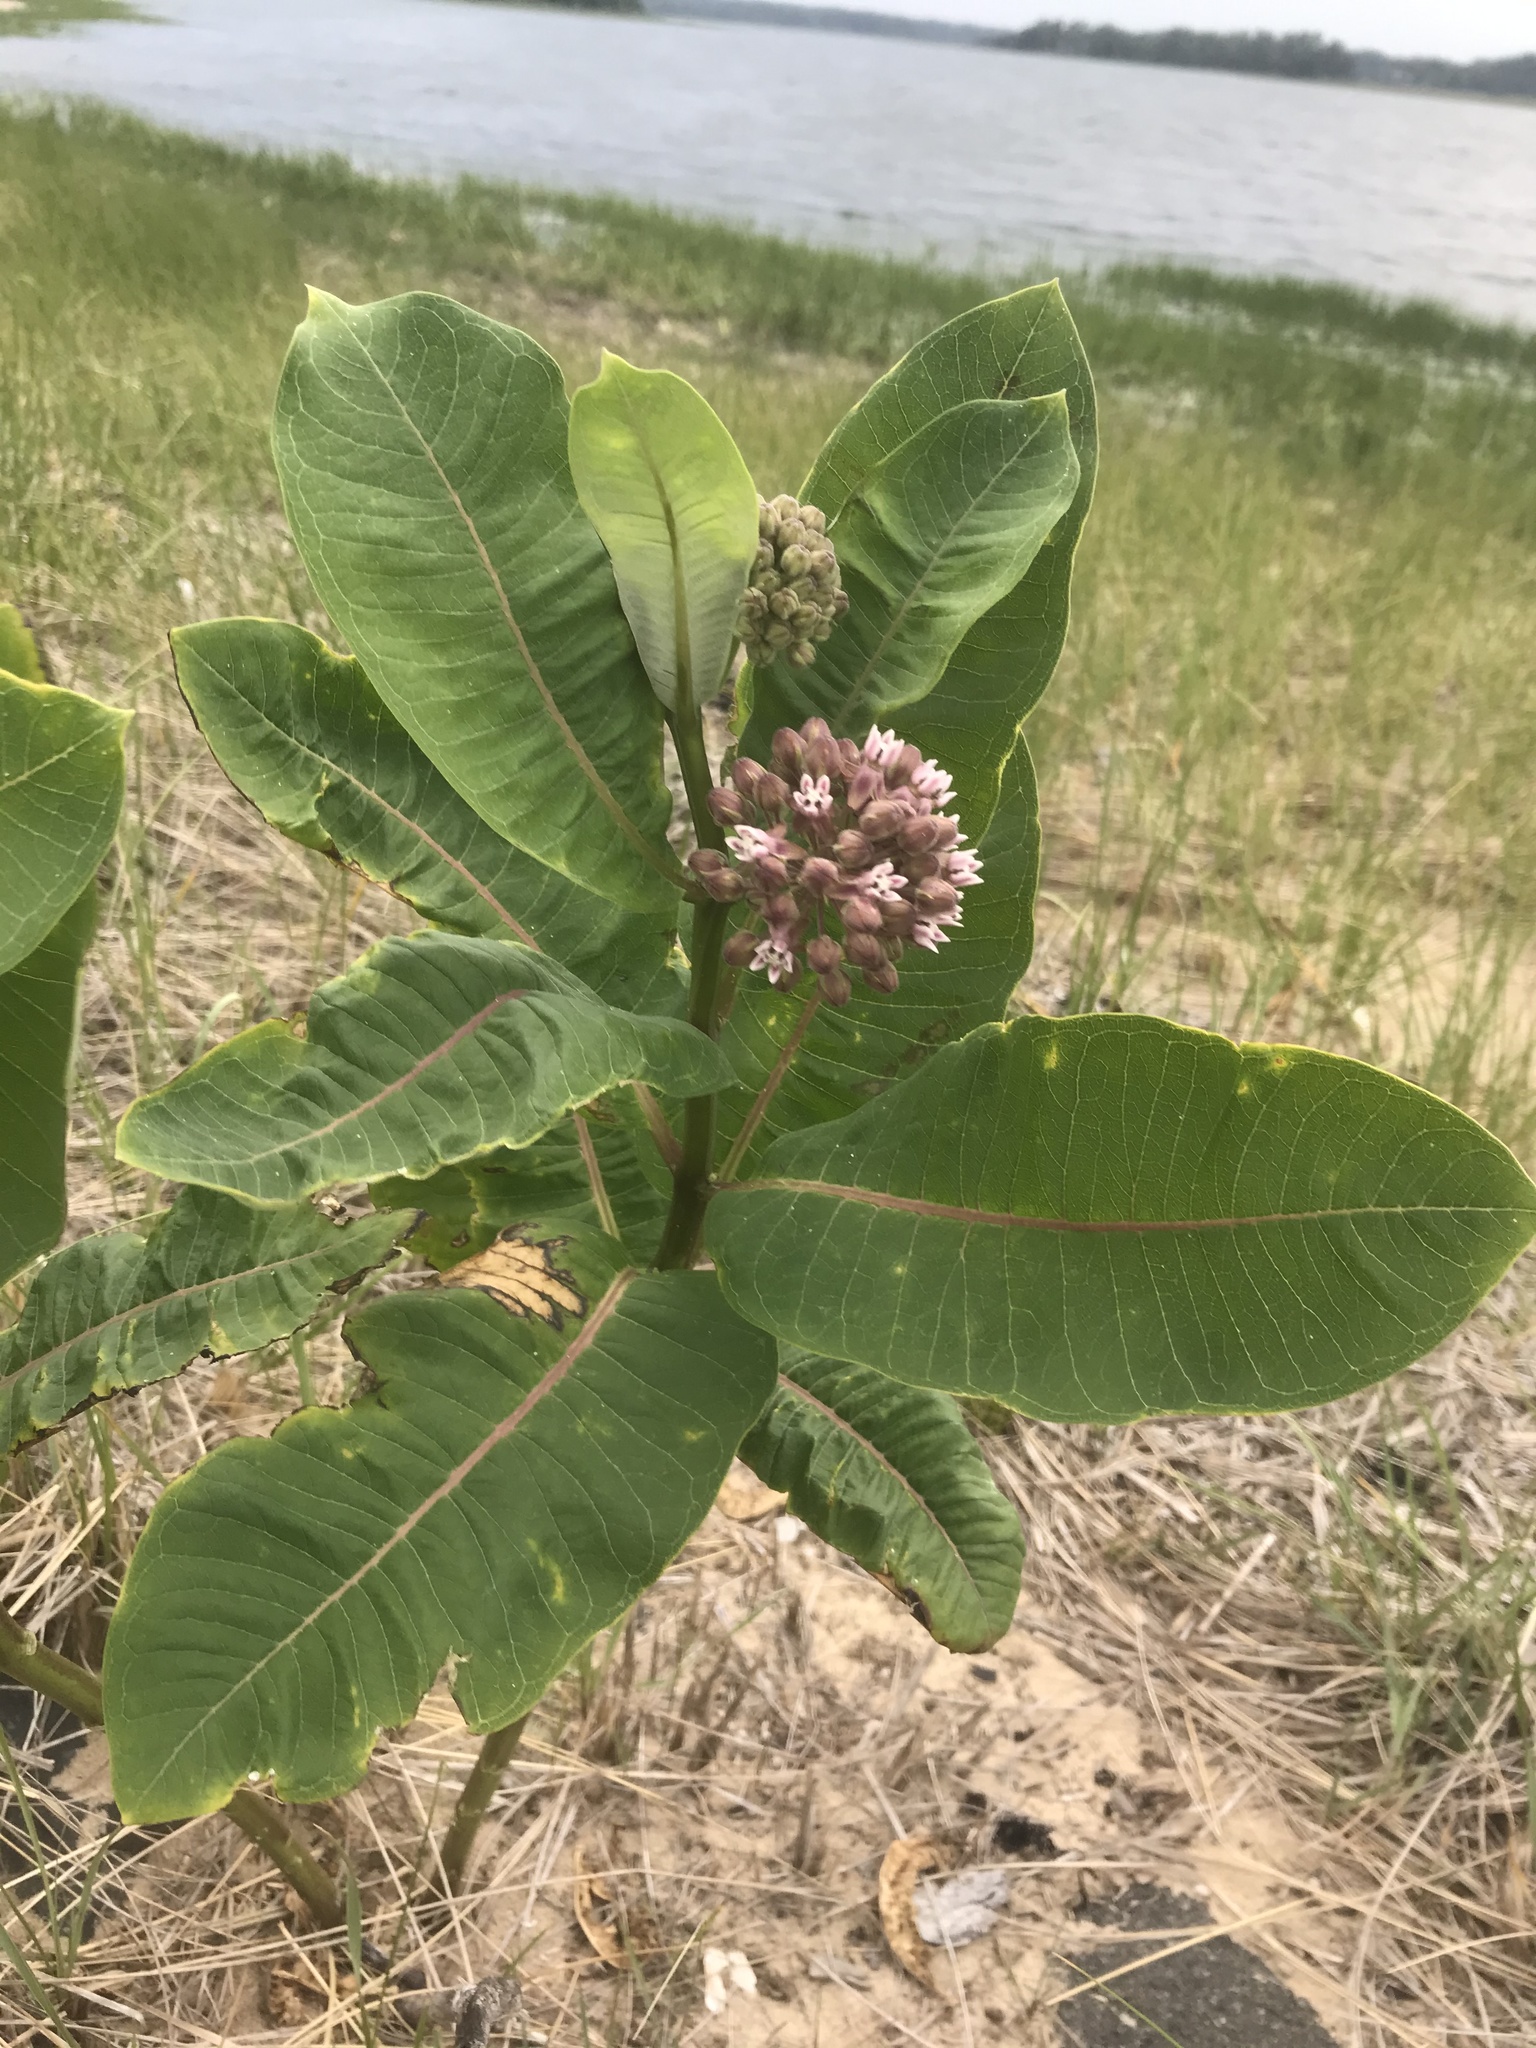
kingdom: Plantae
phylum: Tracheophyta
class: Magnoliopsida
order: Gentianales
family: Apocynaceae
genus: Asclepias
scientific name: Asclepias syriaca
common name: Common milkweed
